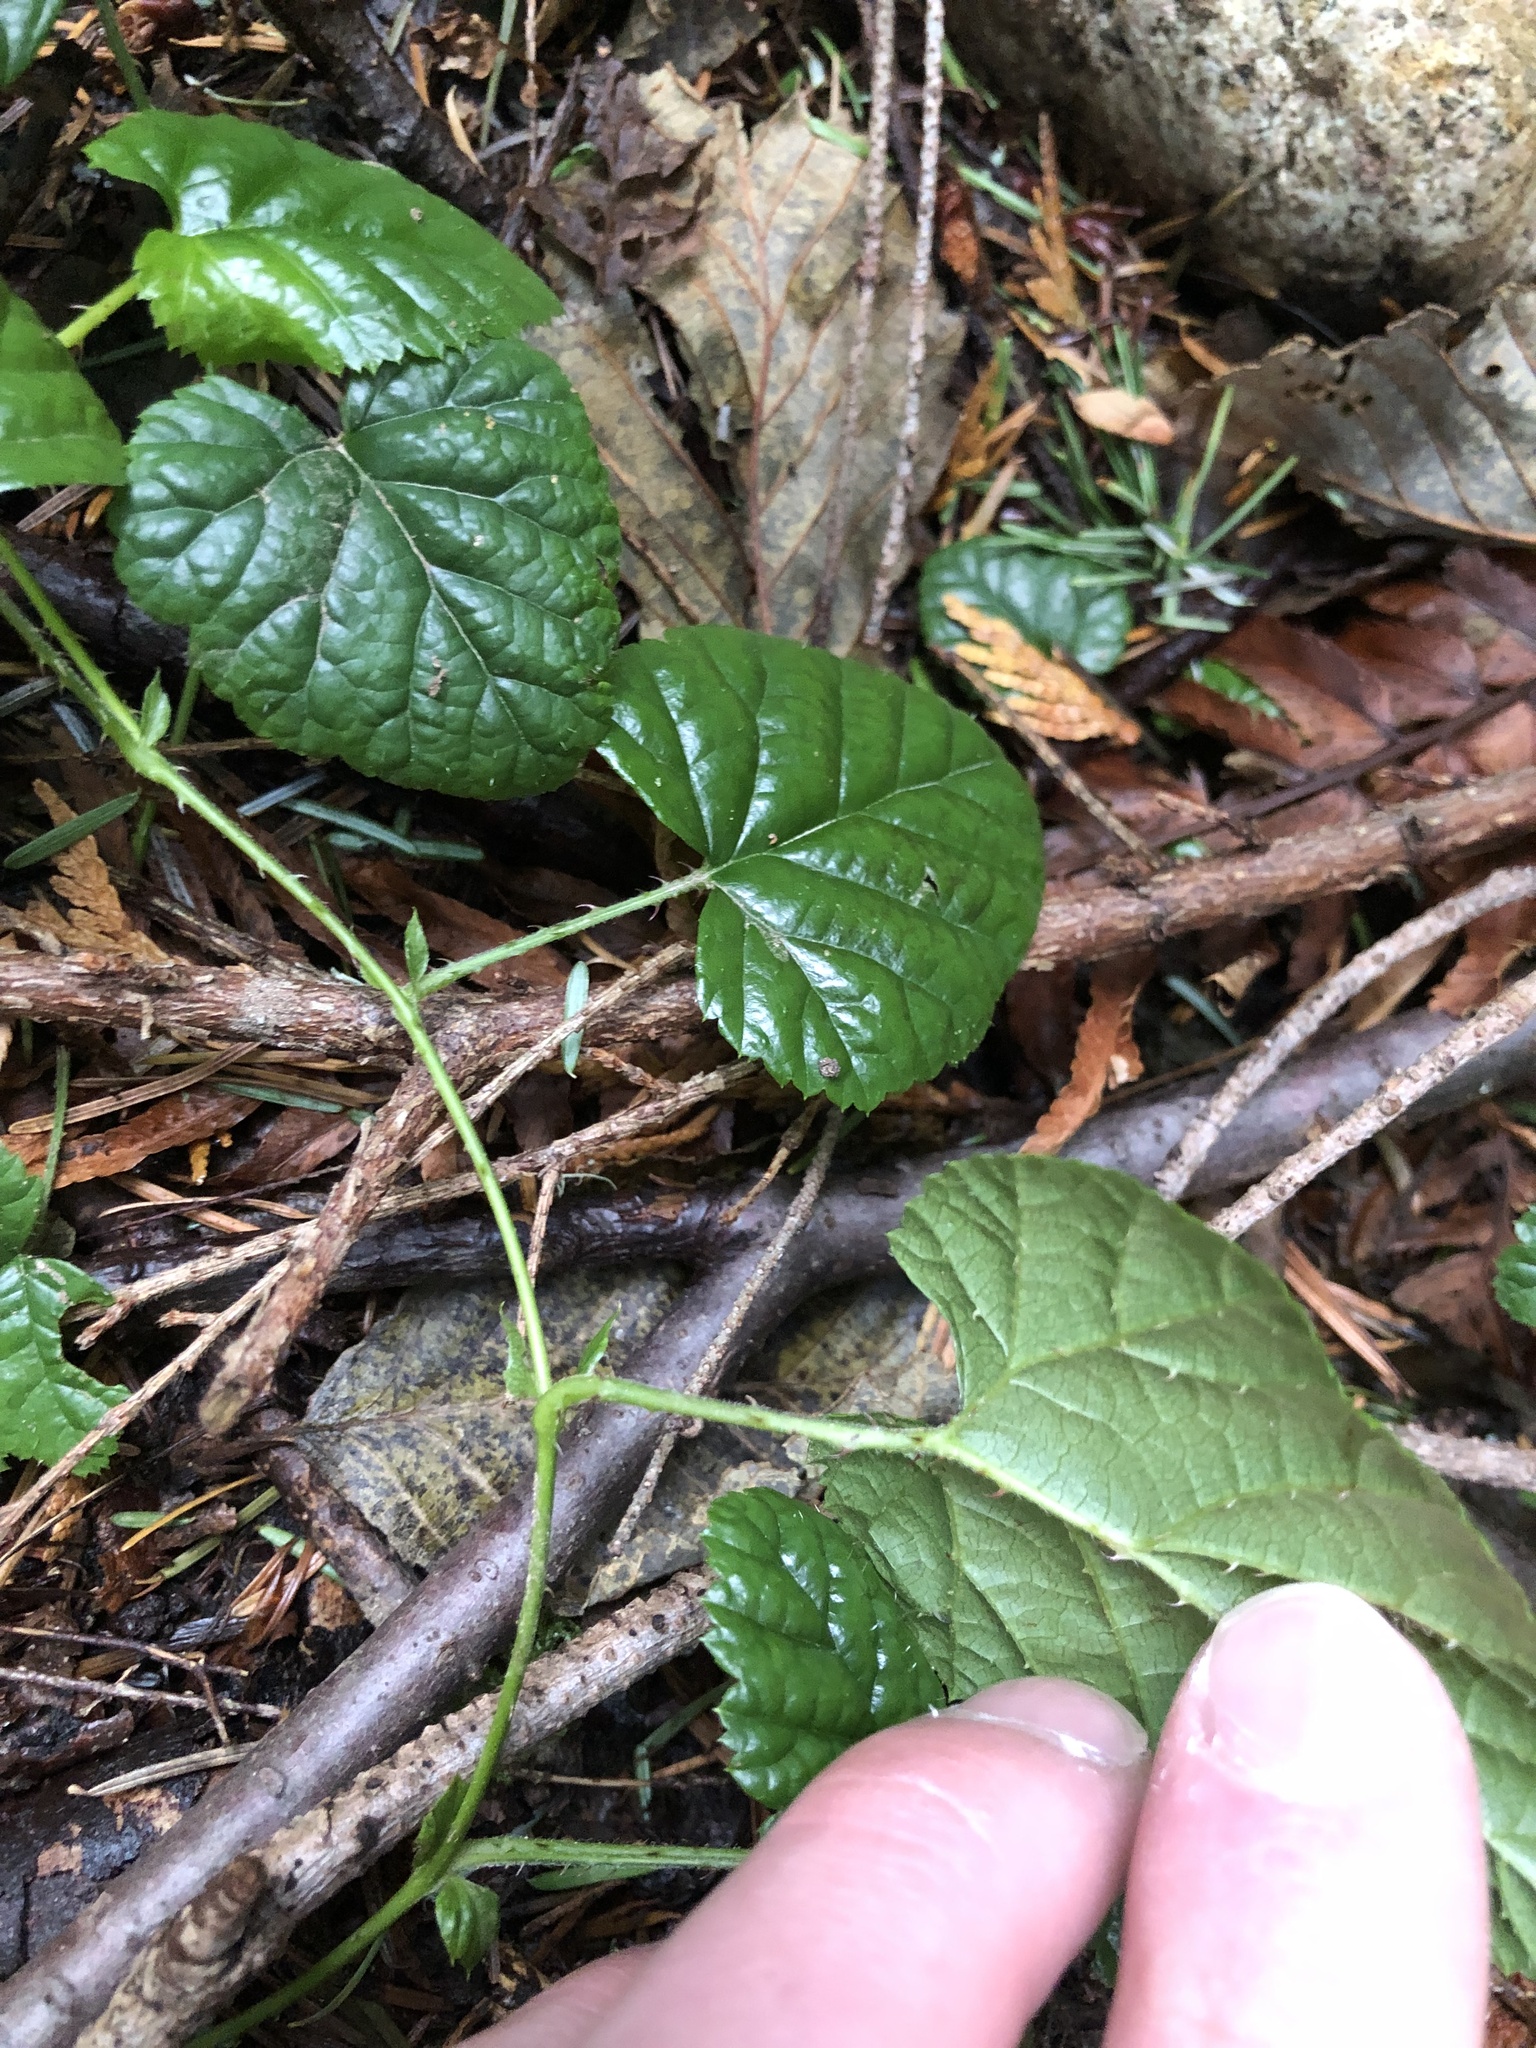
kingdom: Plantae
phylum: Tracheophyta
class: Magnoliopsida
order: Rosales
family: Rosaceae
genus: Rubus
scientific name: Rubus nivalis
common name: Dwarf snow bramble
